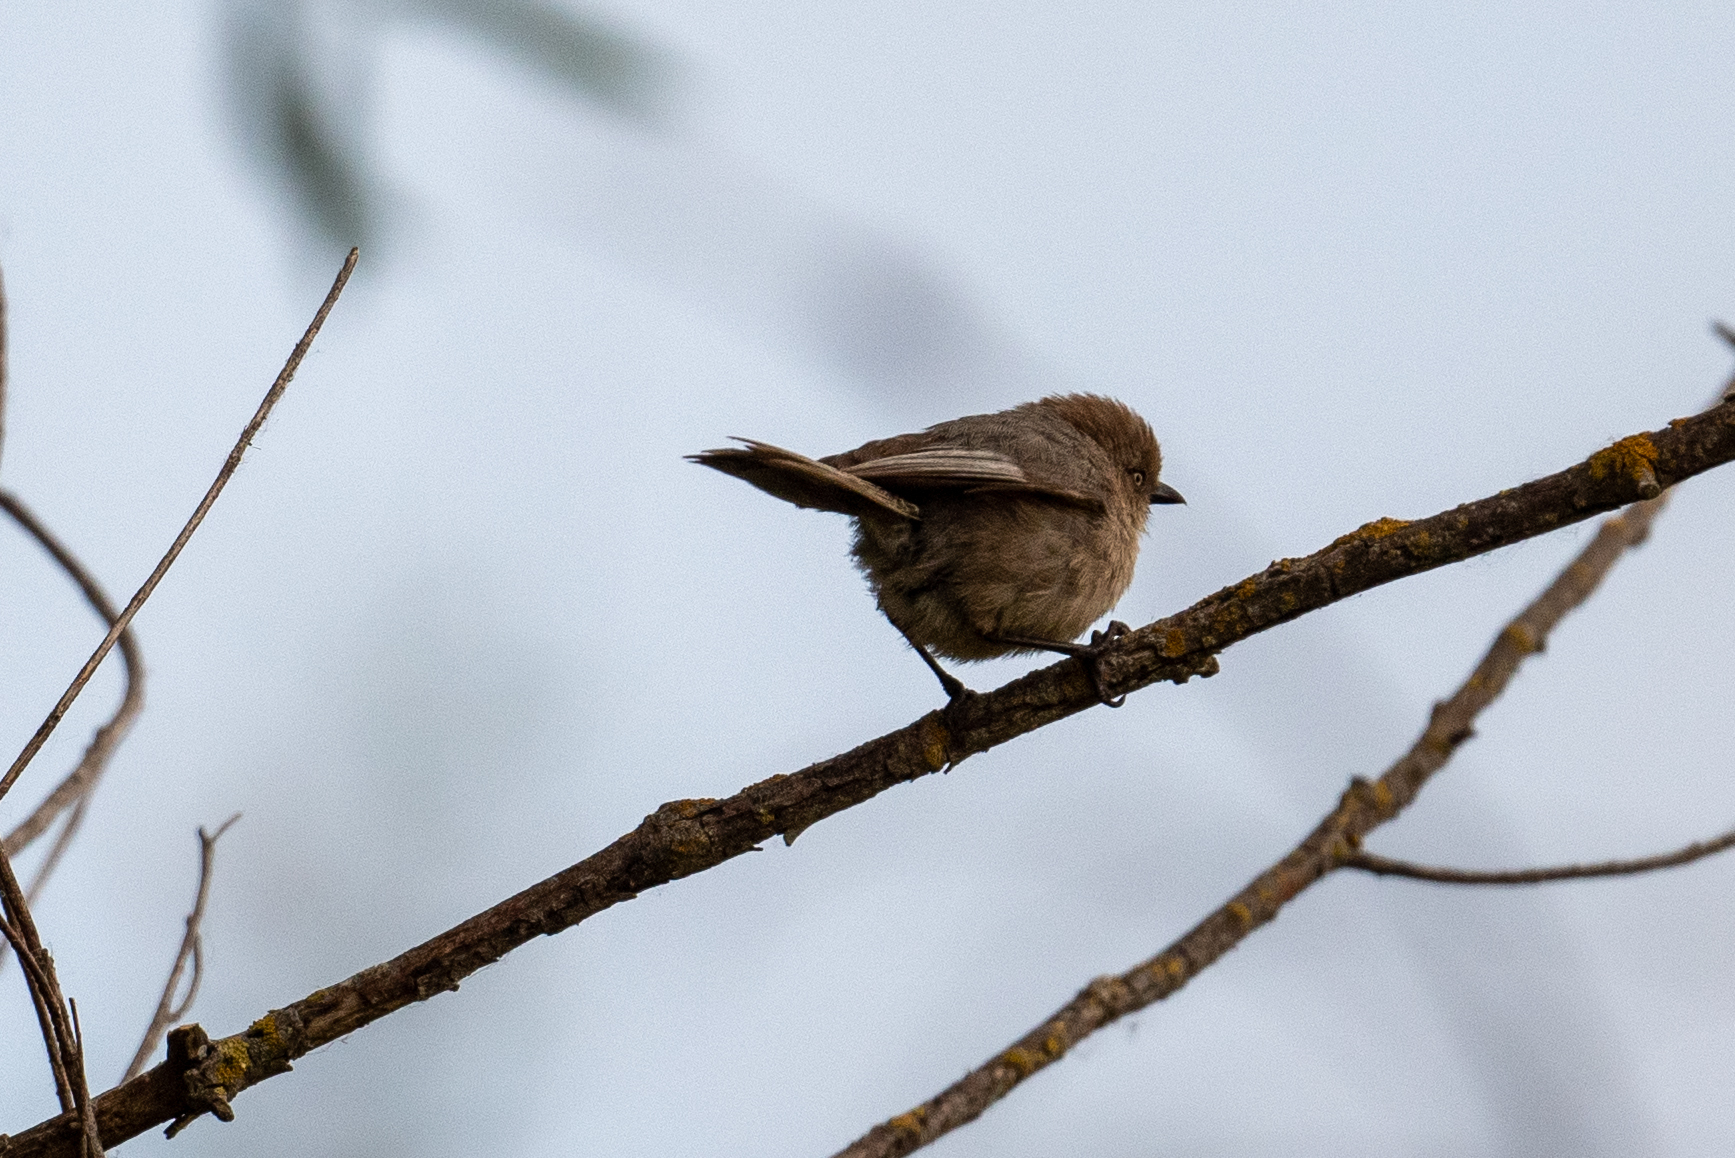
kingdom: Animalia
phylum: Chordata
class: Aves
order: Passeriformes
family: Aegithalidae
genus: Psaltriparus
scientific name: Psaltriparus minimus
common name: American bushtit
